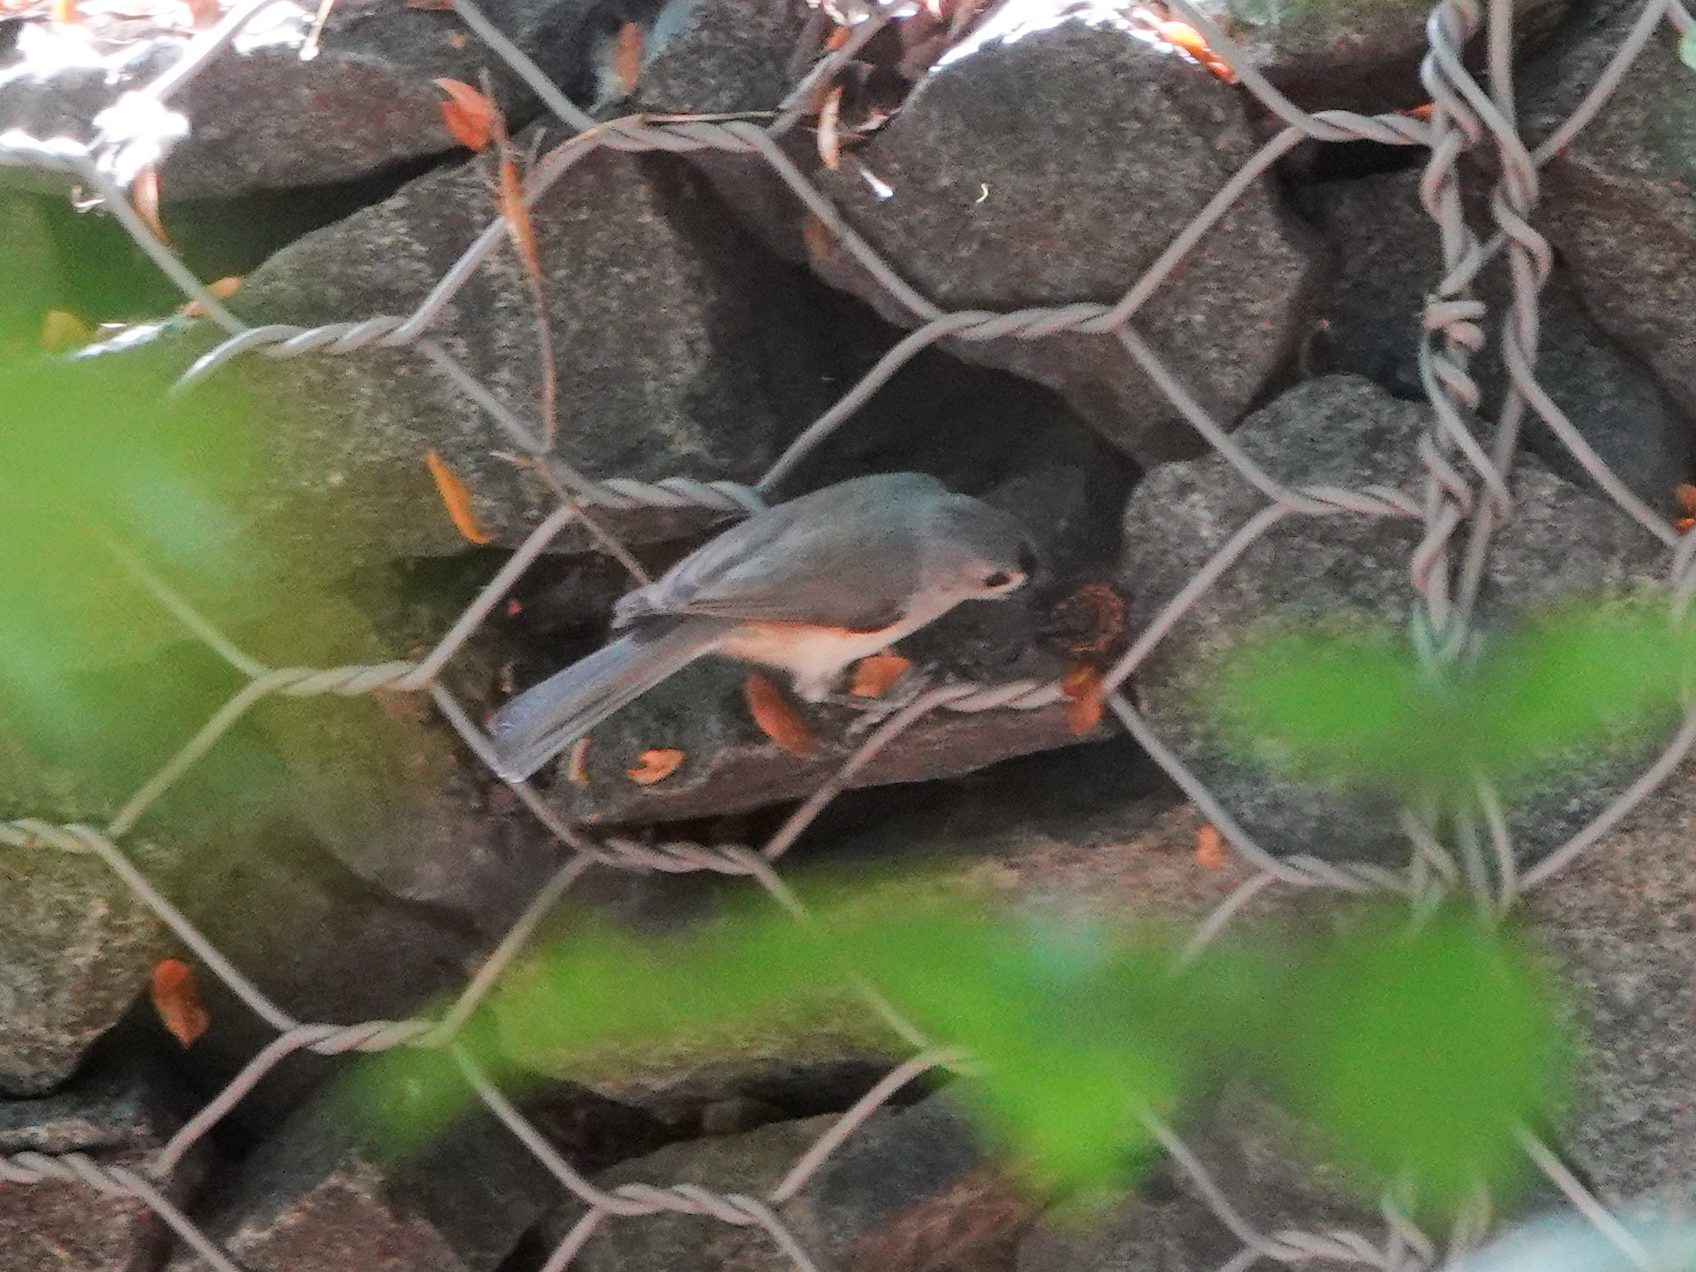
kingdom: Animalia
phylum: Chordata
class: Aves
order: Passeriformes
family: Paridae
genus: Baeolophus
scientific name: Baeolophus bicolor
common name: Tufted titmouse
